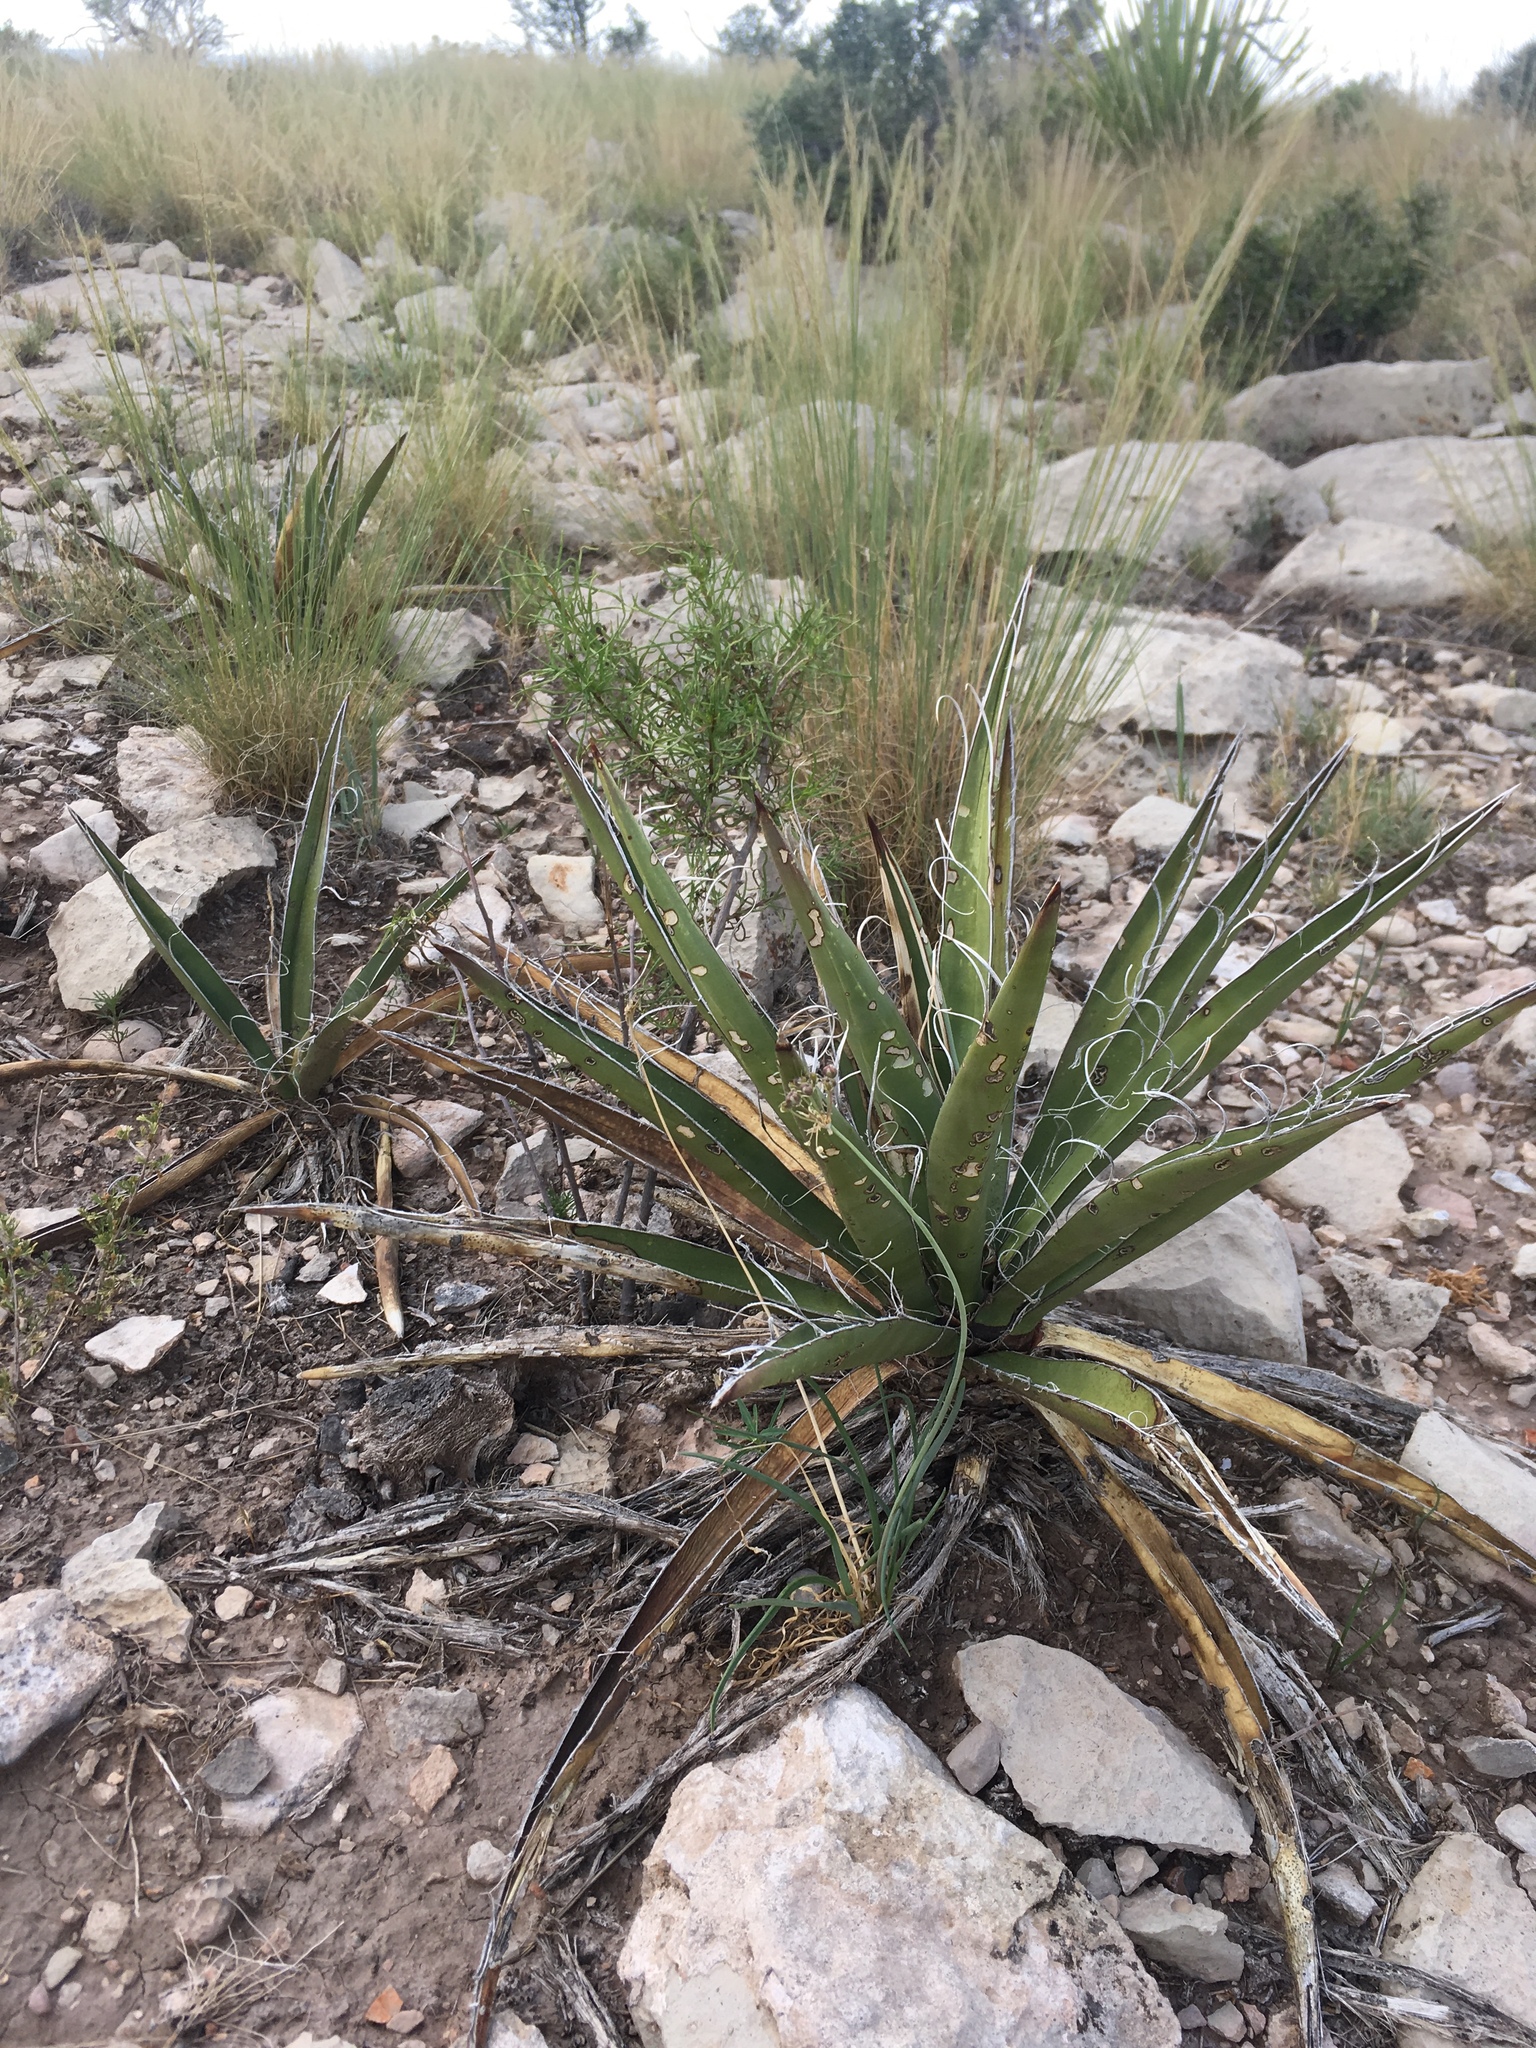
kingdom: Plantae
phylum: Tracheophyta
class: Liliopsida
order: Asparagales
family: Asparagaceae
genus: Yucca
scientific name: Yucca baccata
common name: Banana yucca
